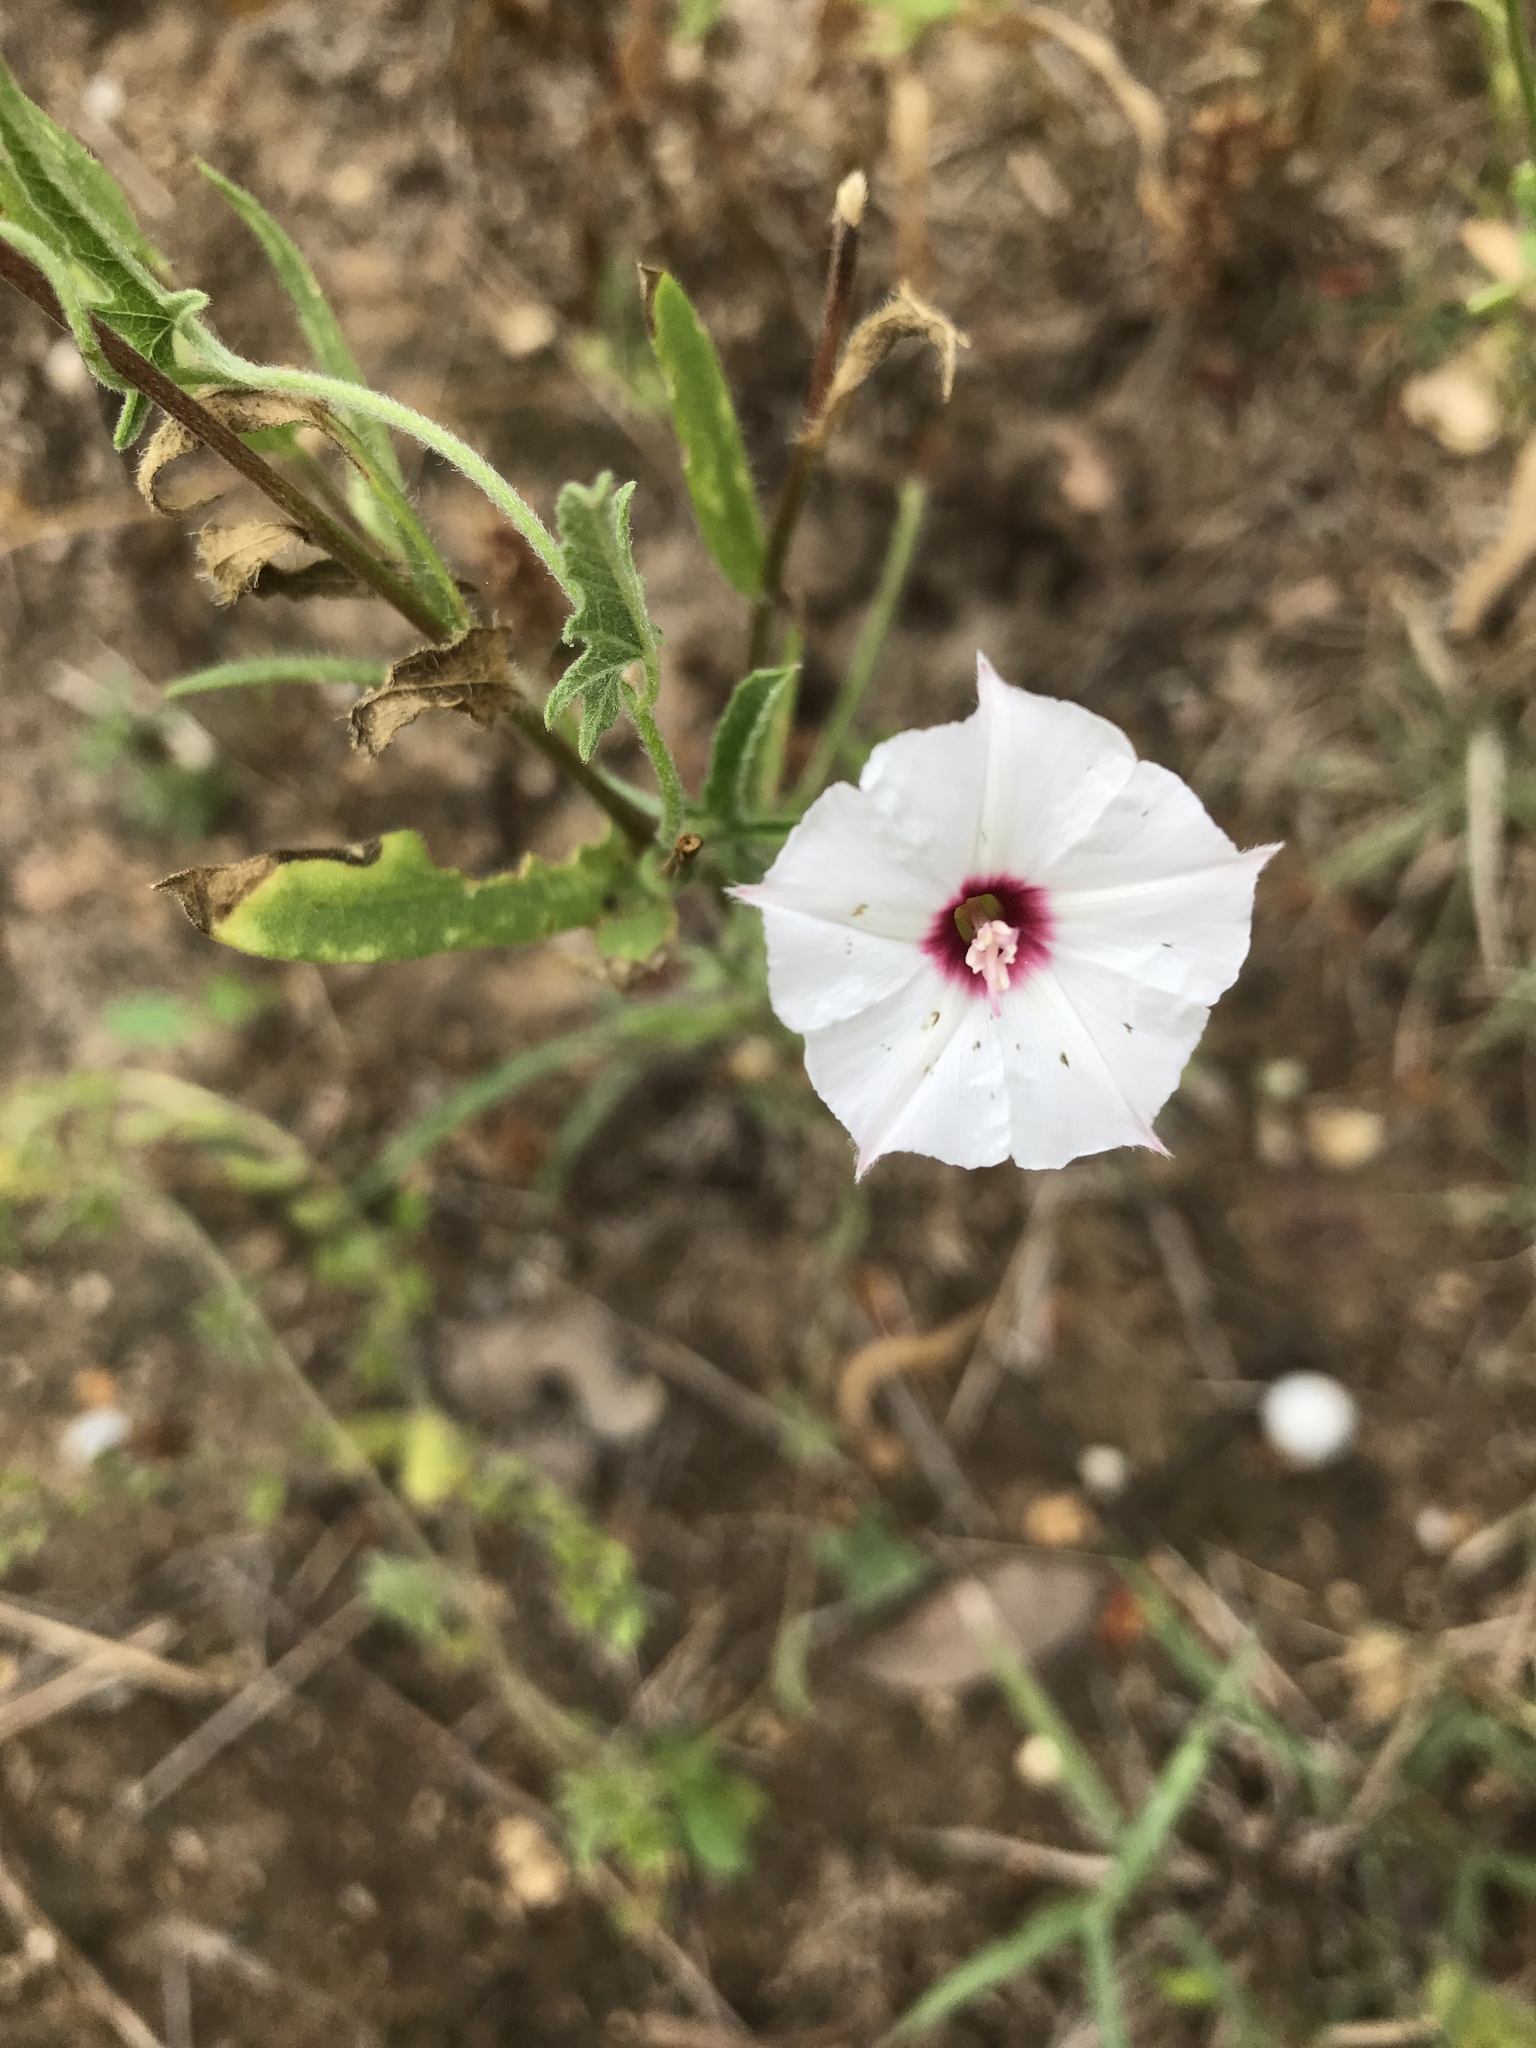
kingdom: Plantae
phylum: Tracheophyta
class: Magnoliopsida
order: Solanales
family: Convolvulaceae
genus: Convolvulus
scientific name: Convolvulus equitans
